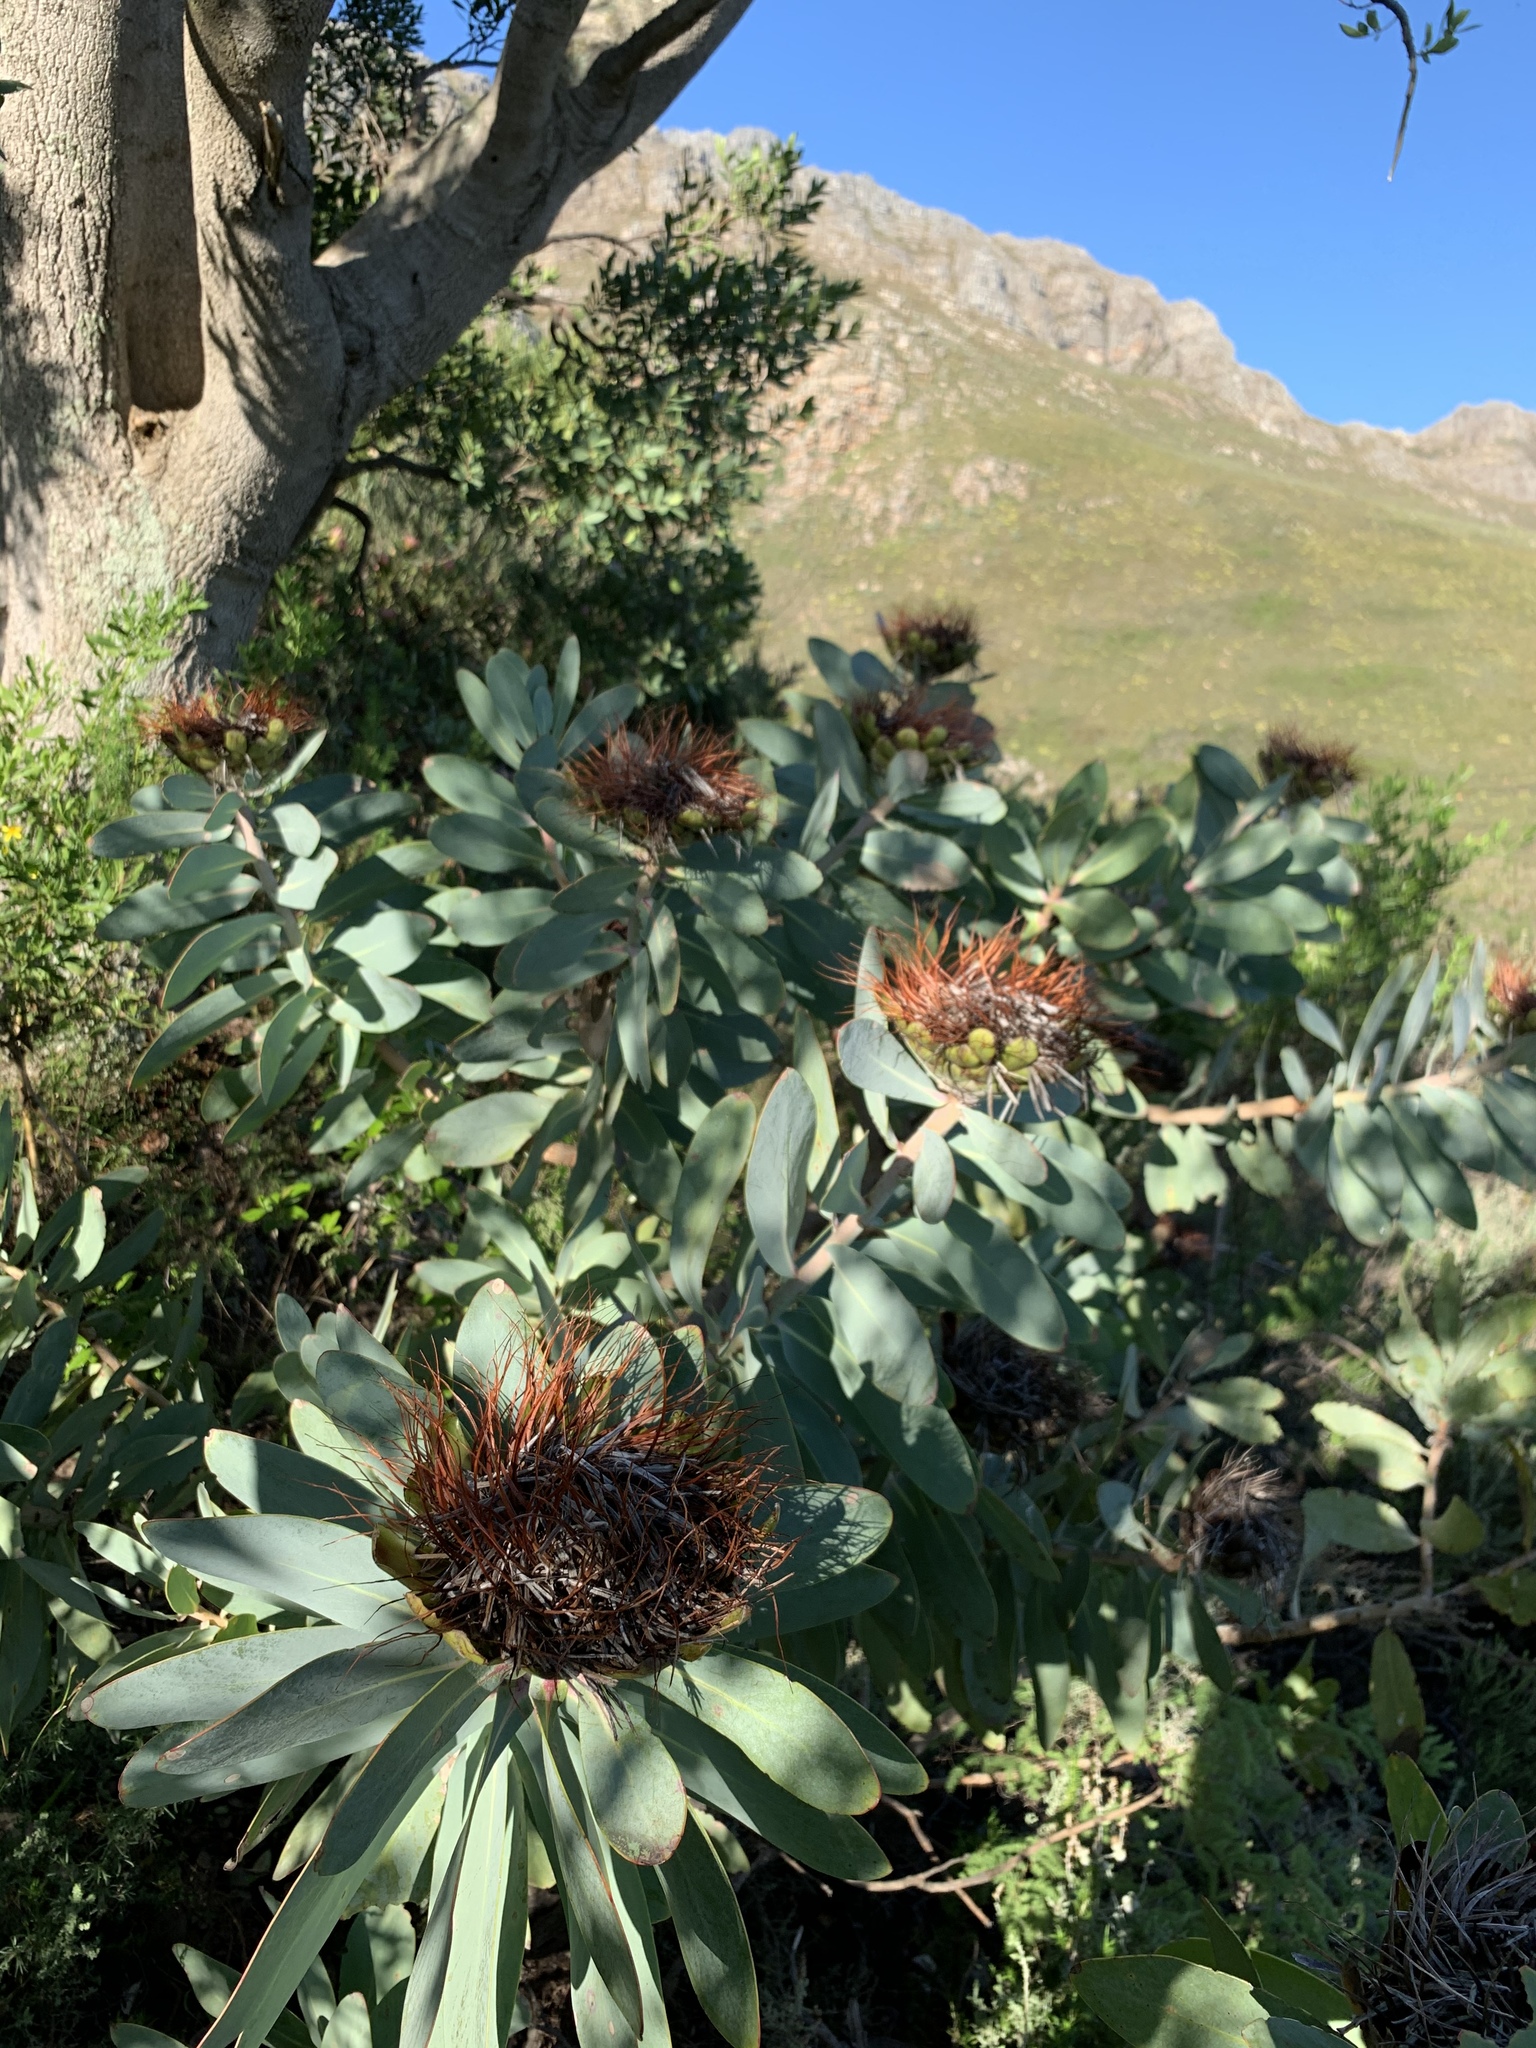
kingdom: Plantae
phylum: Tracheophyta
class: Magnoliopsida
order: Proteales
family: Proteaceae
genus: Protea
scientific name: Protea nitida
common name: Tree protea
